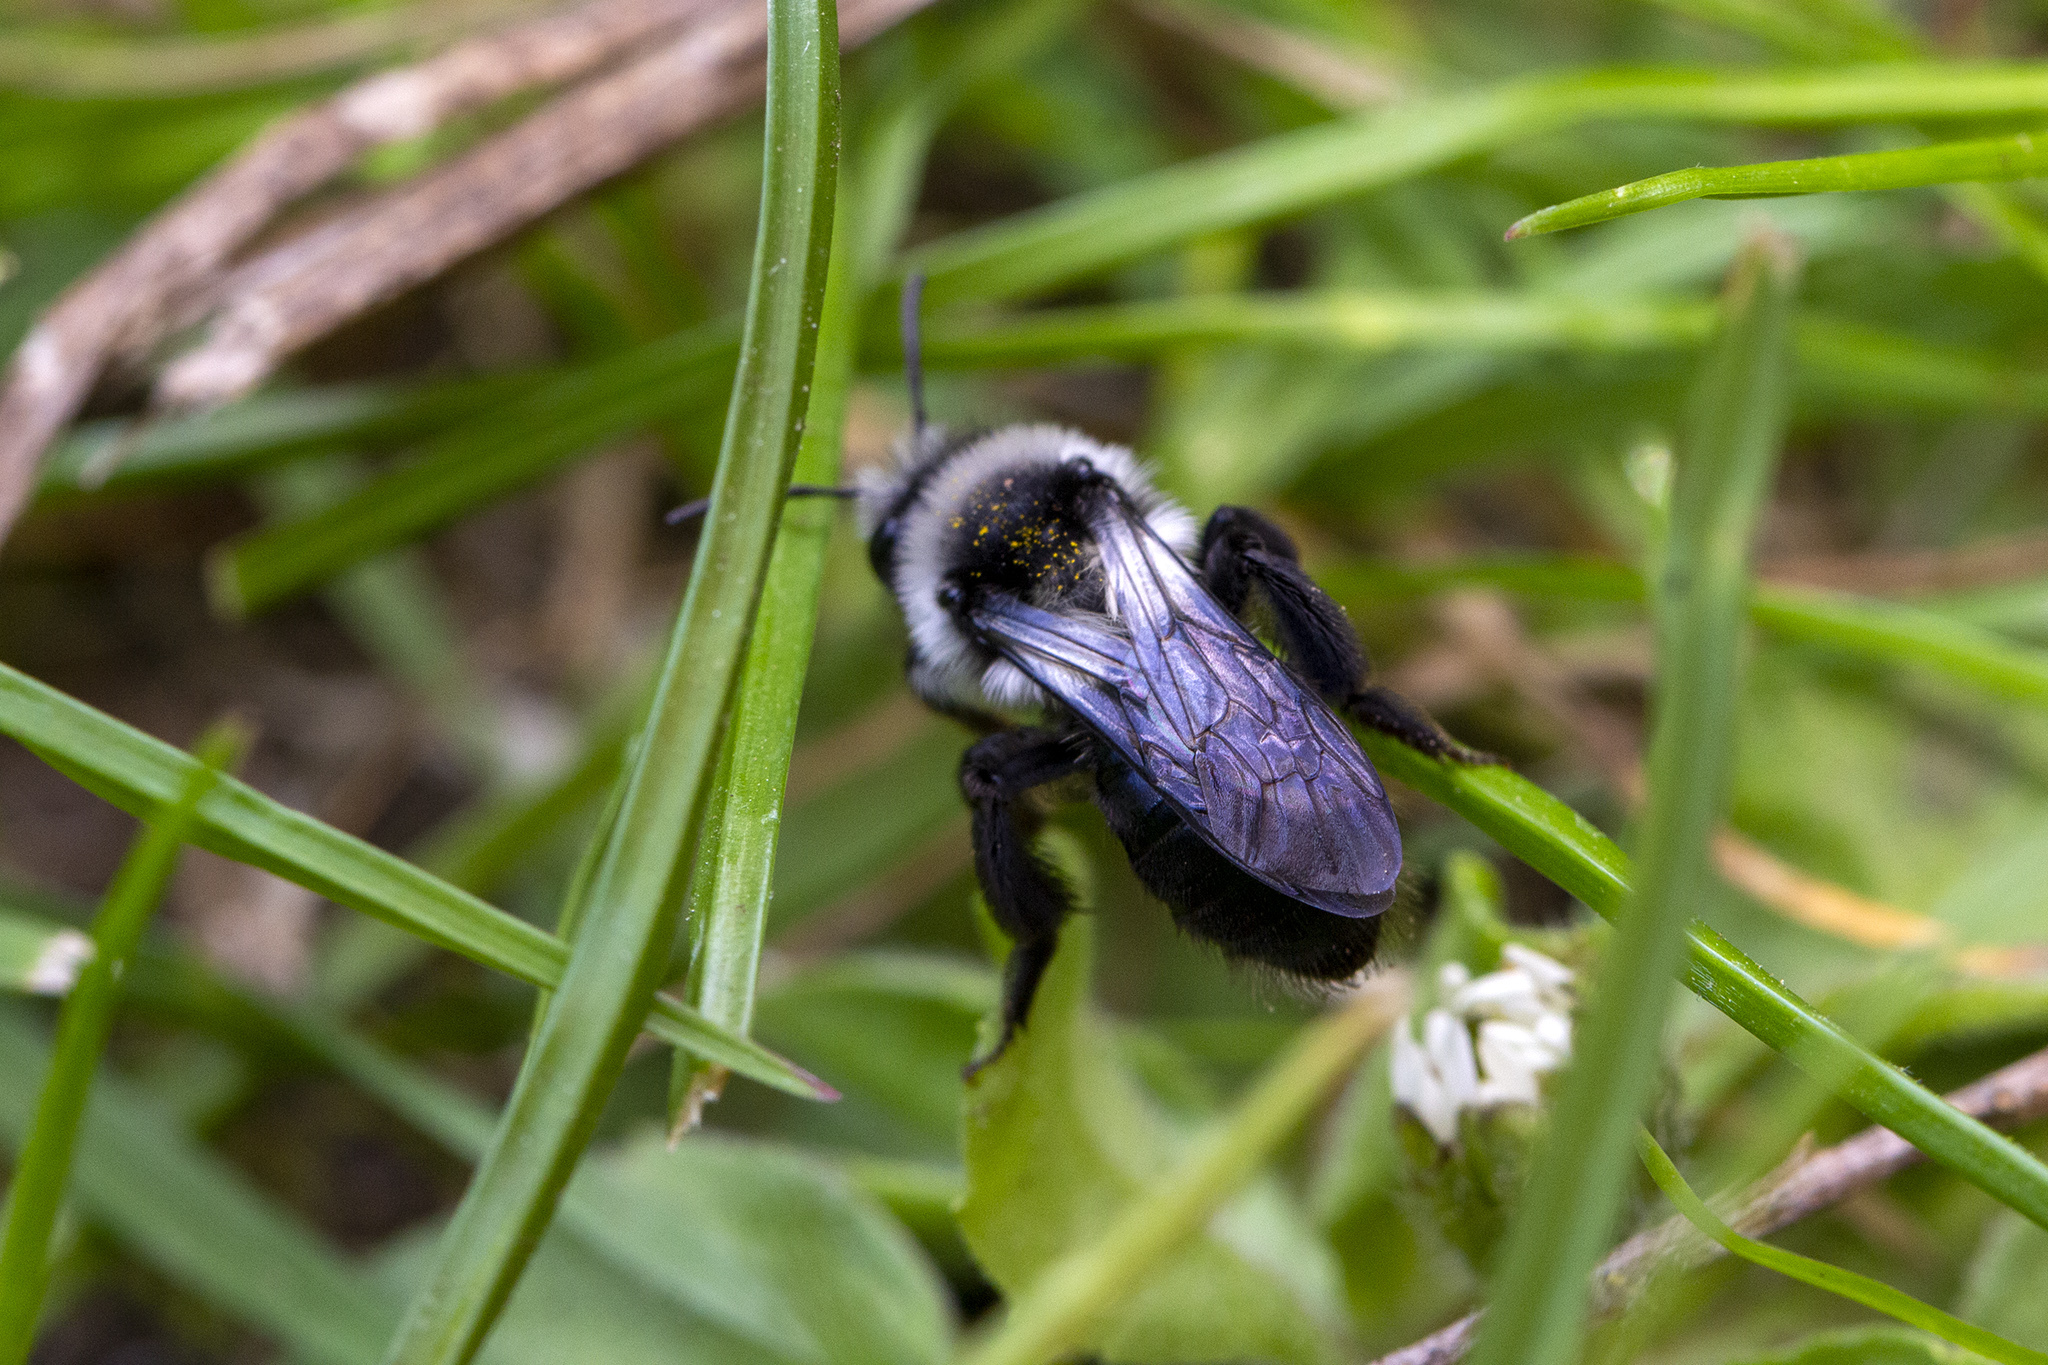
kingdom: Animalia
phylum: Arthropoda
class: Insecta
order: Hymenoptera
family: Andrenidae
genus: Andrena
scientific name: Andrena cineraria
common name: Ashy mining bee
